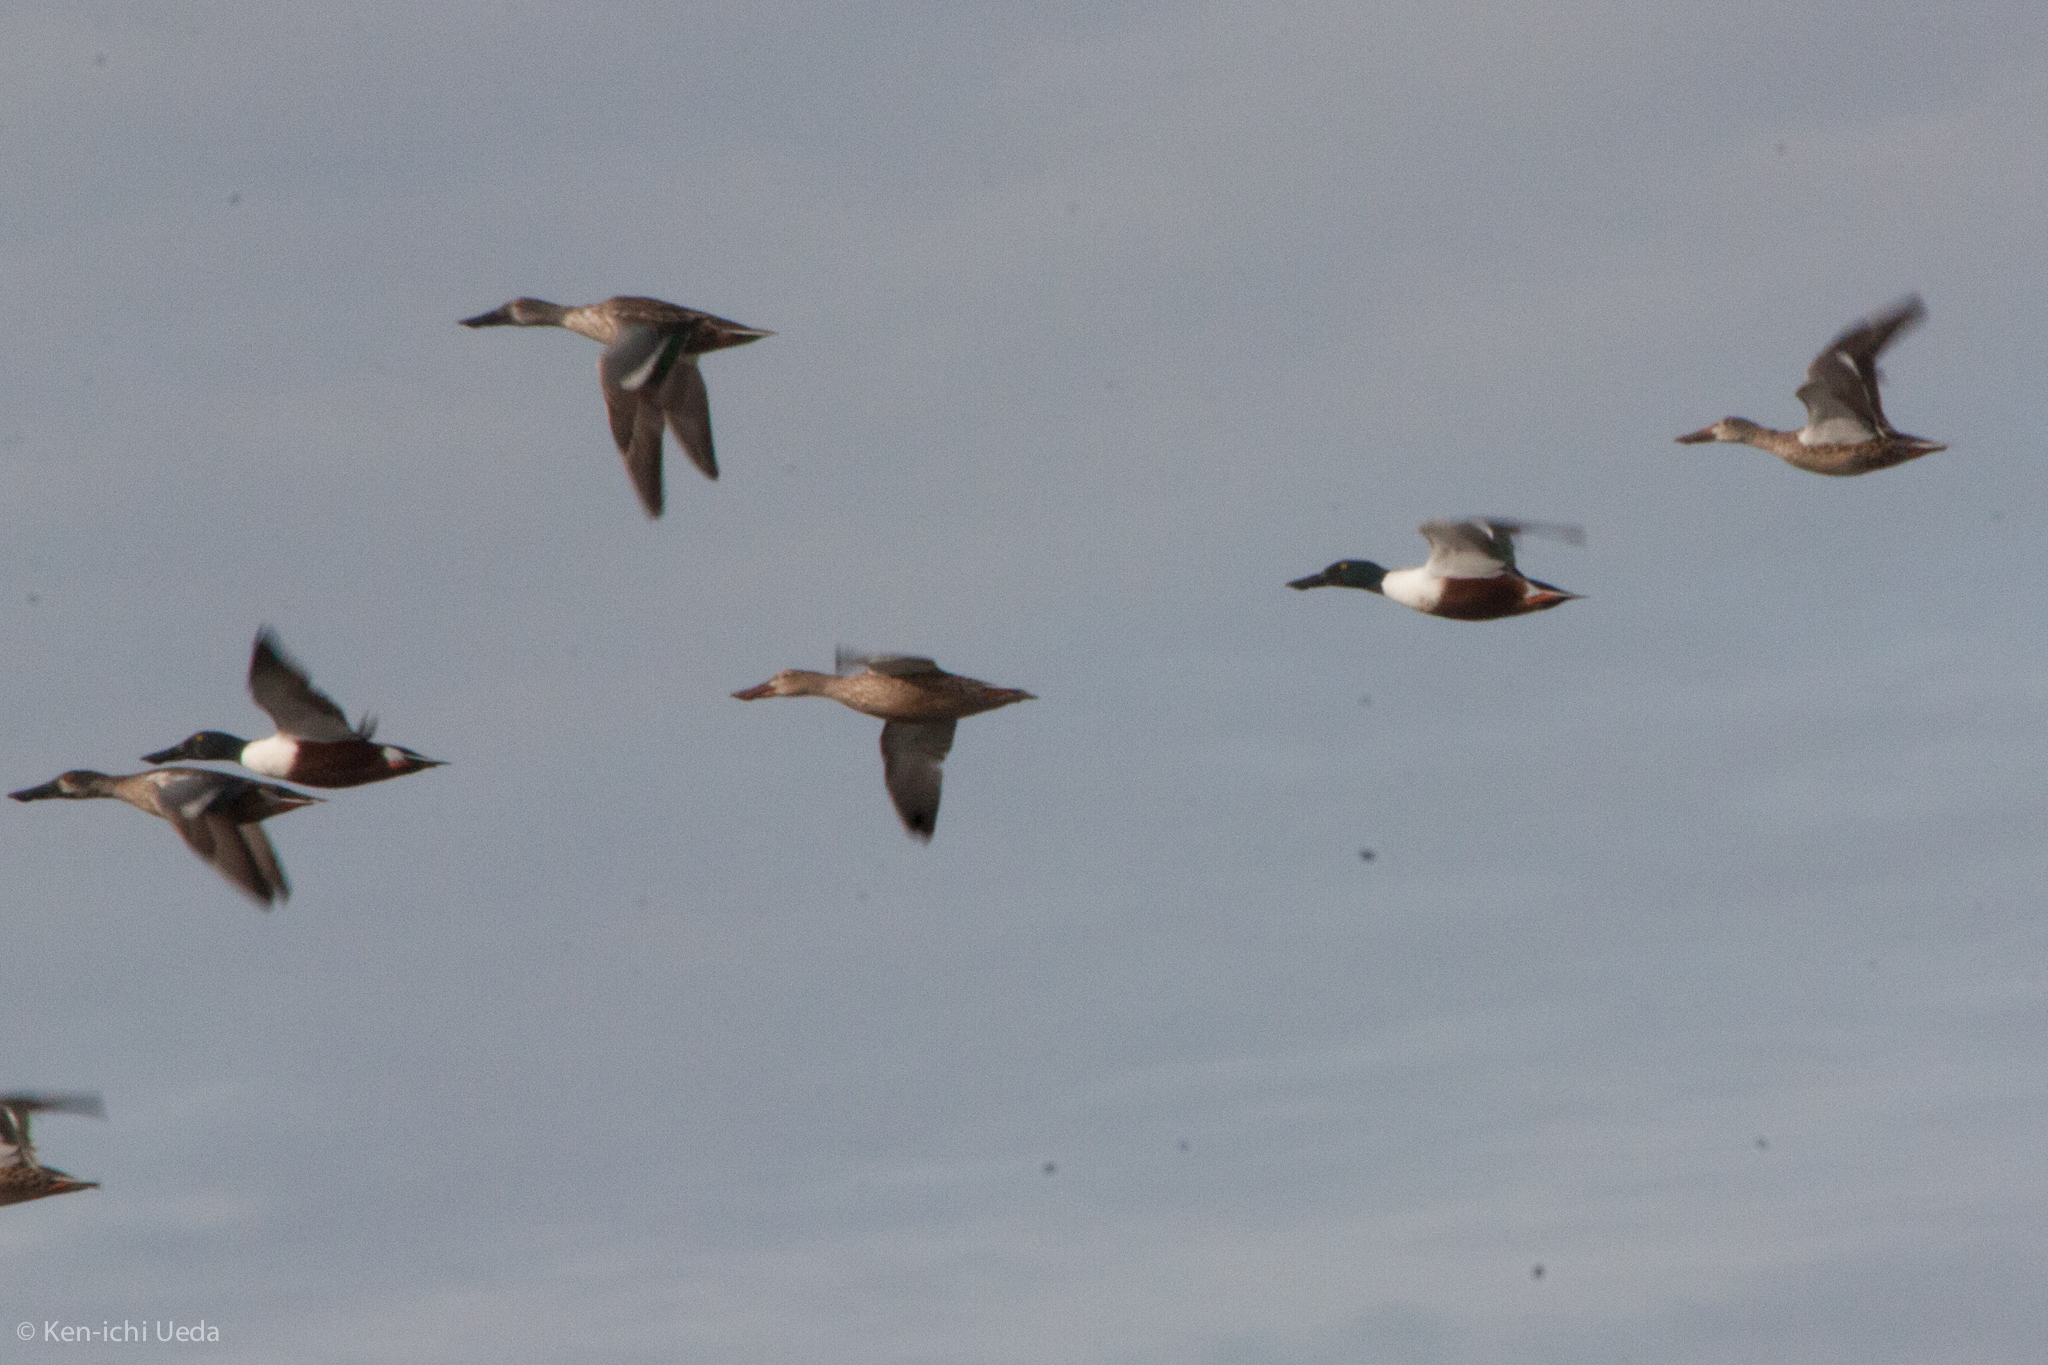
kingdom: Animalia
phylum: Chordata
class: Aves
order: Anseriformes
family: Anatidae
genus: Spatula
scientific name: Spatula clypeata
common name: Northern shoveler
